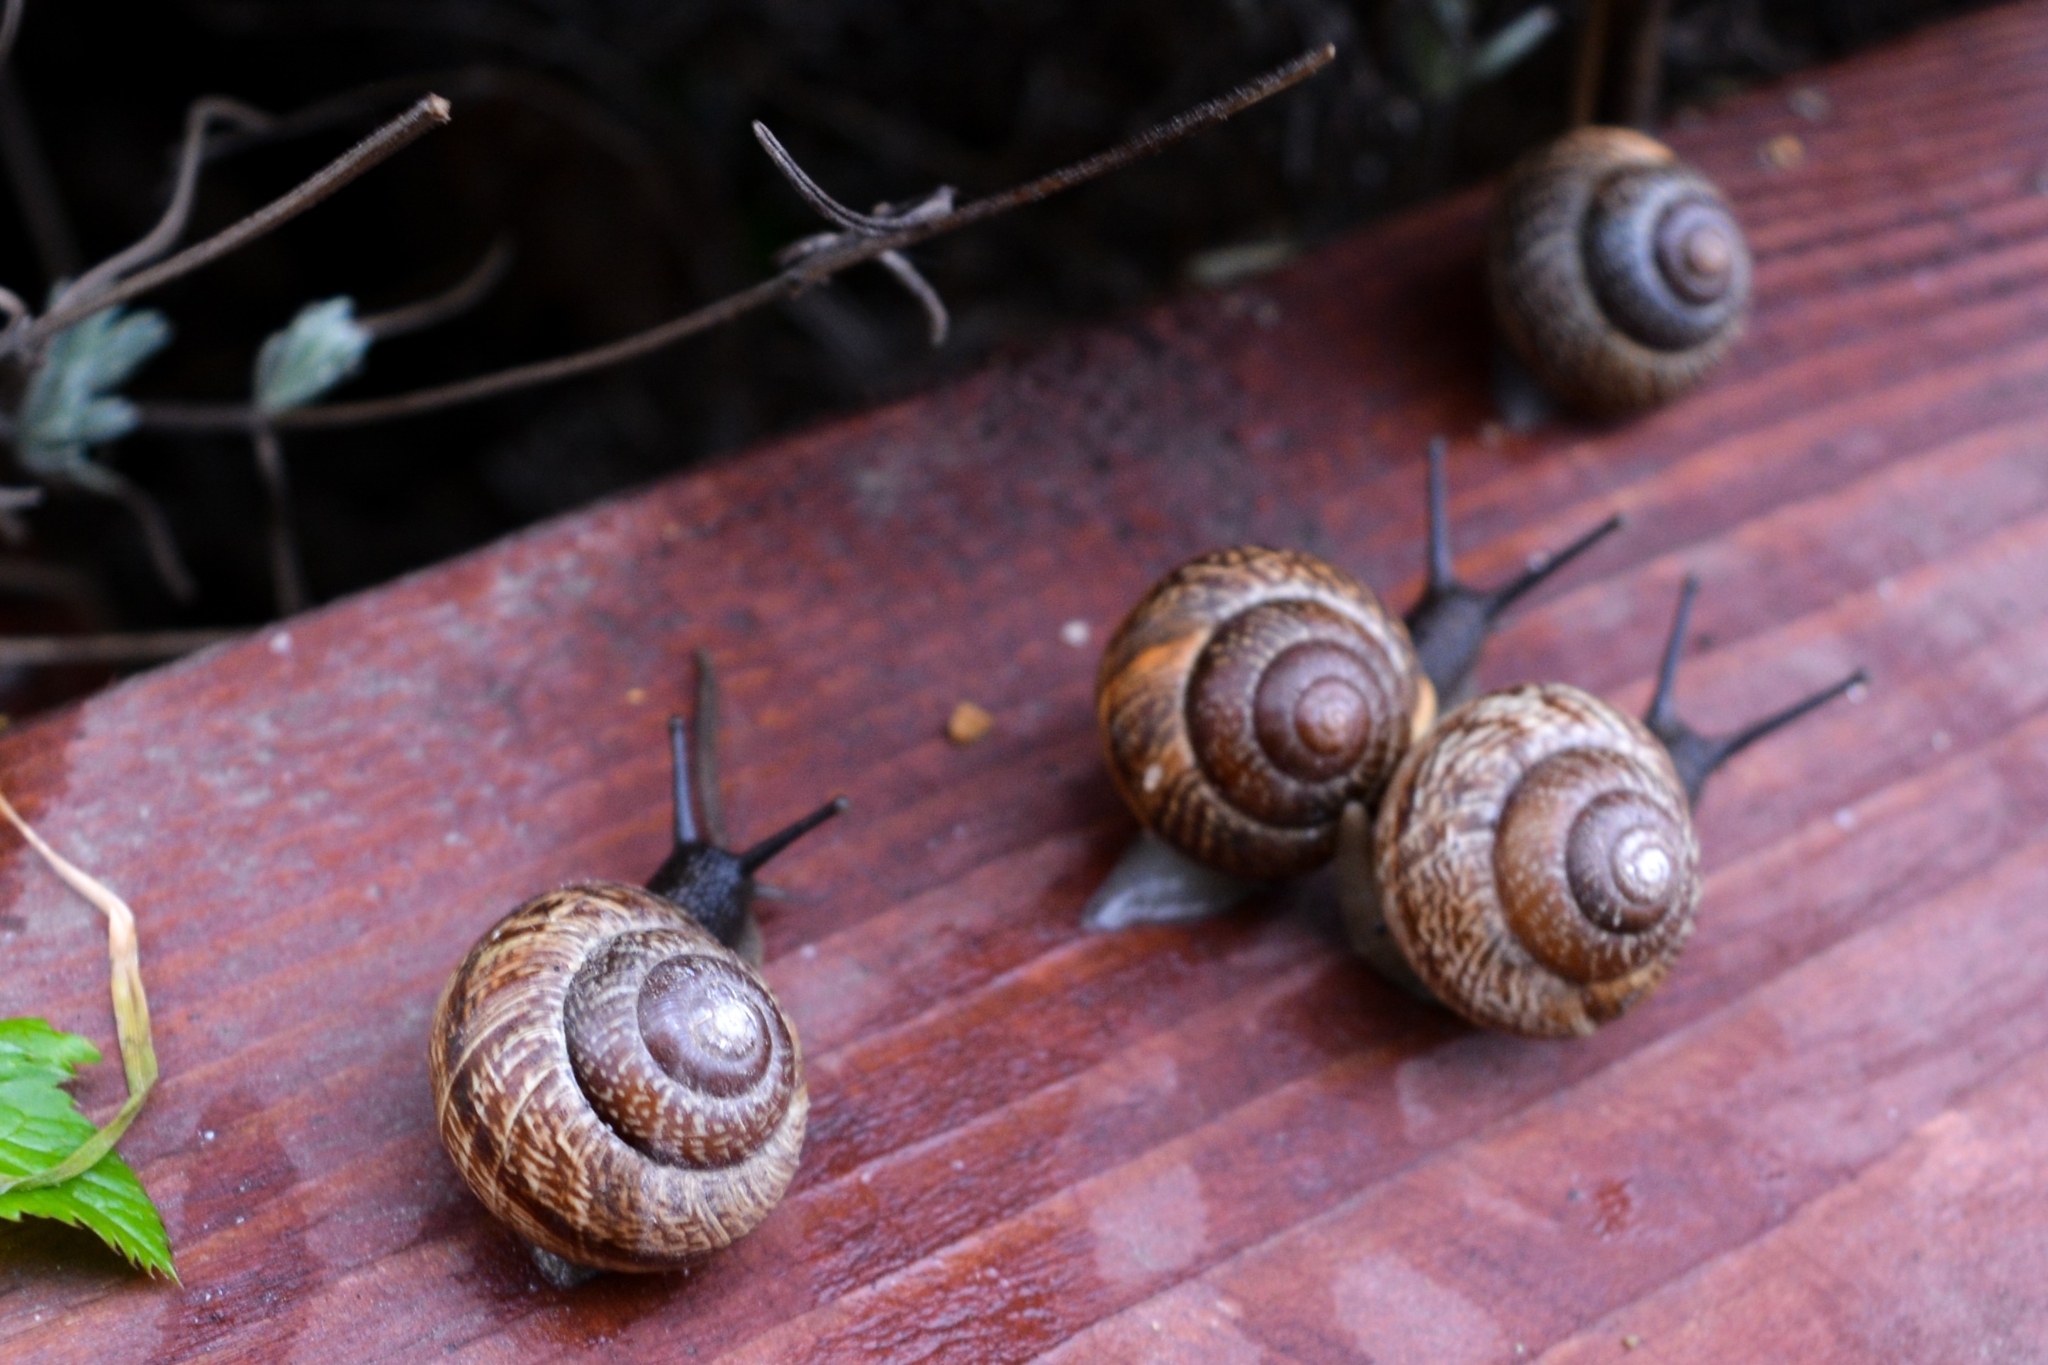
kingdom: Animalia
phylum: Mollusca
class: Gastropoda
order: Stylommatophora
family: Helicidae
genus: Arianta
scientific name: Arianta arbustorum
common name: Copse snail
